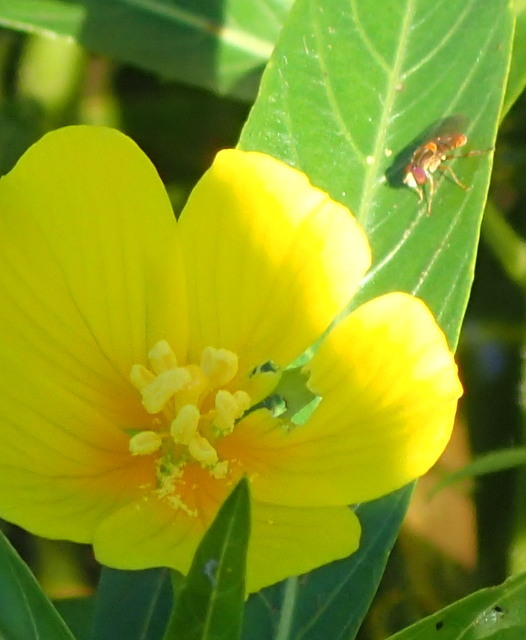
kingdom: Animalia
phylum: Arthropoda
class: Insecta
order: Diptera
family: Syrphidae
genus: Toxomerus
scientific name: Toxomerus jussiaeae
